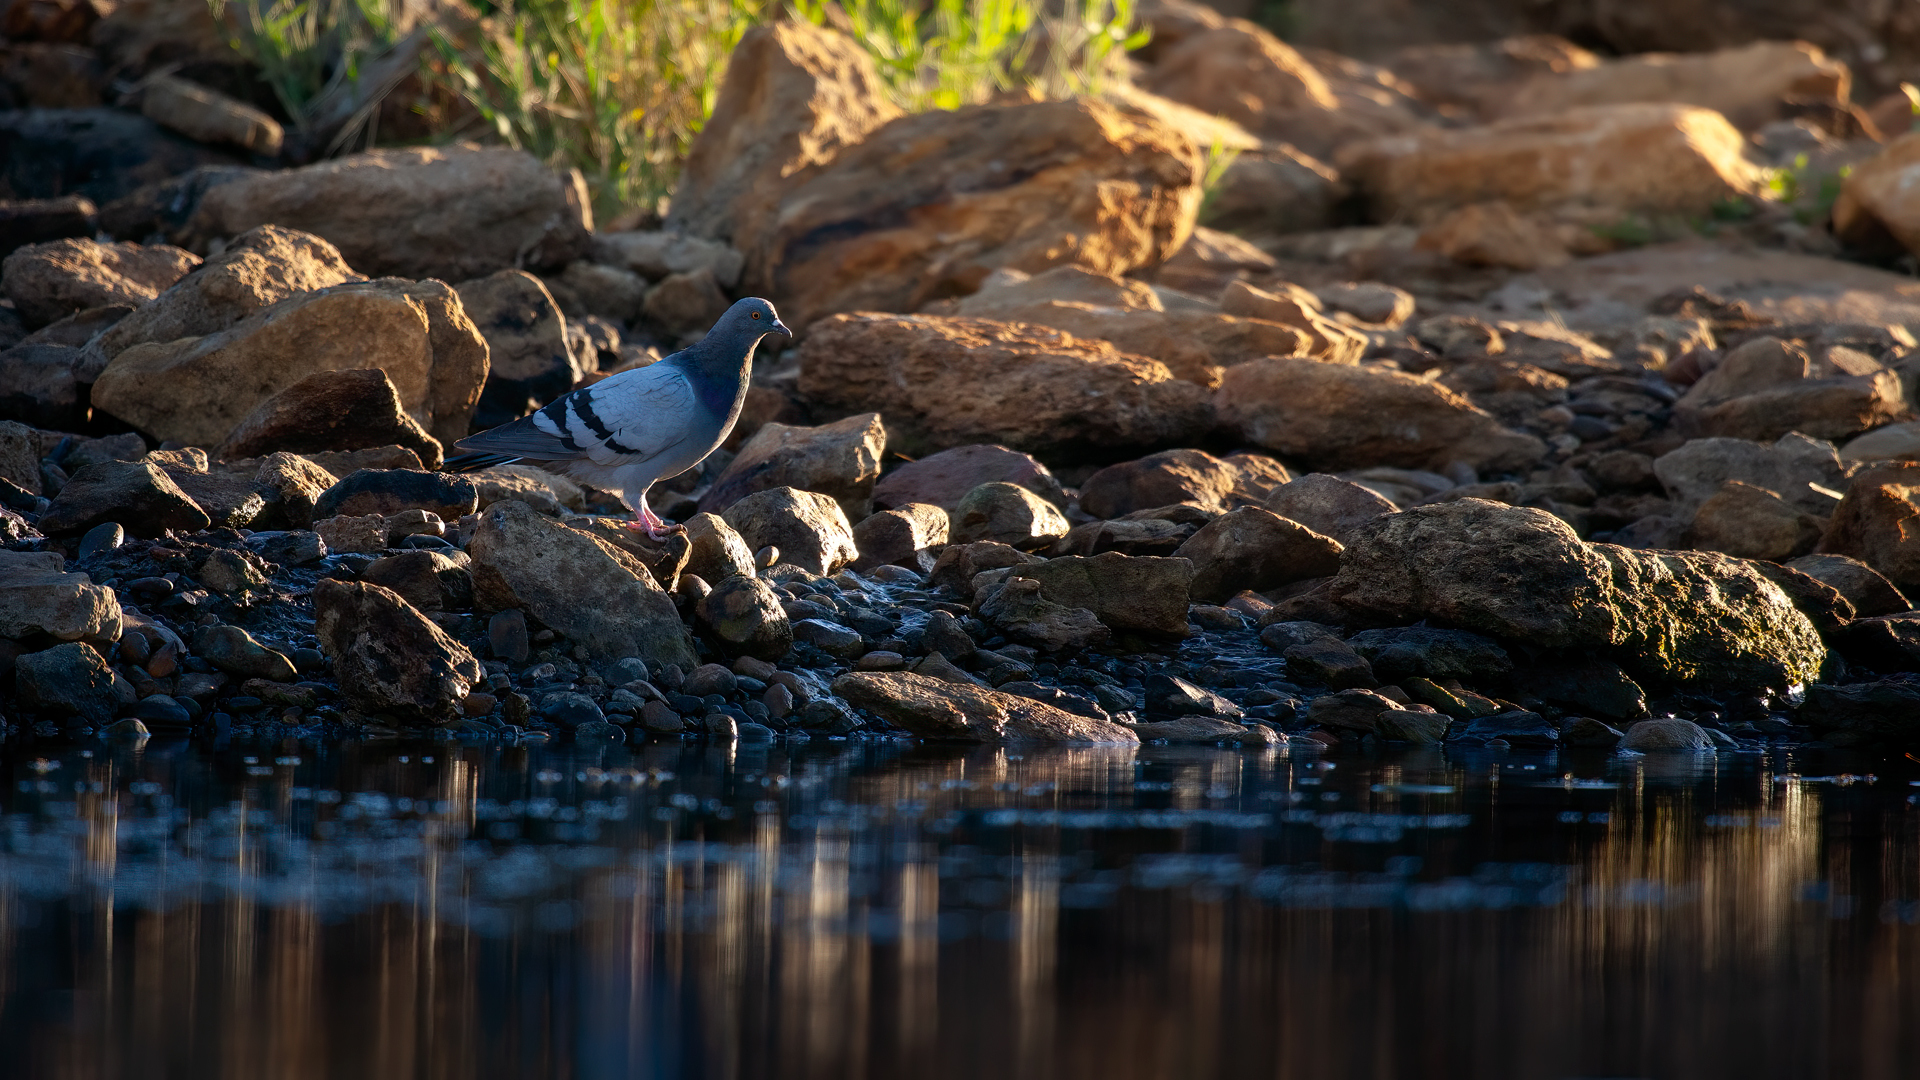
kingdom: Animalia
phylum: Chordata
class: Aves
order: Columbiformes
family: Columbidae
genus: Columba
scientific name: Columba livia
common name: Rock pigeon
